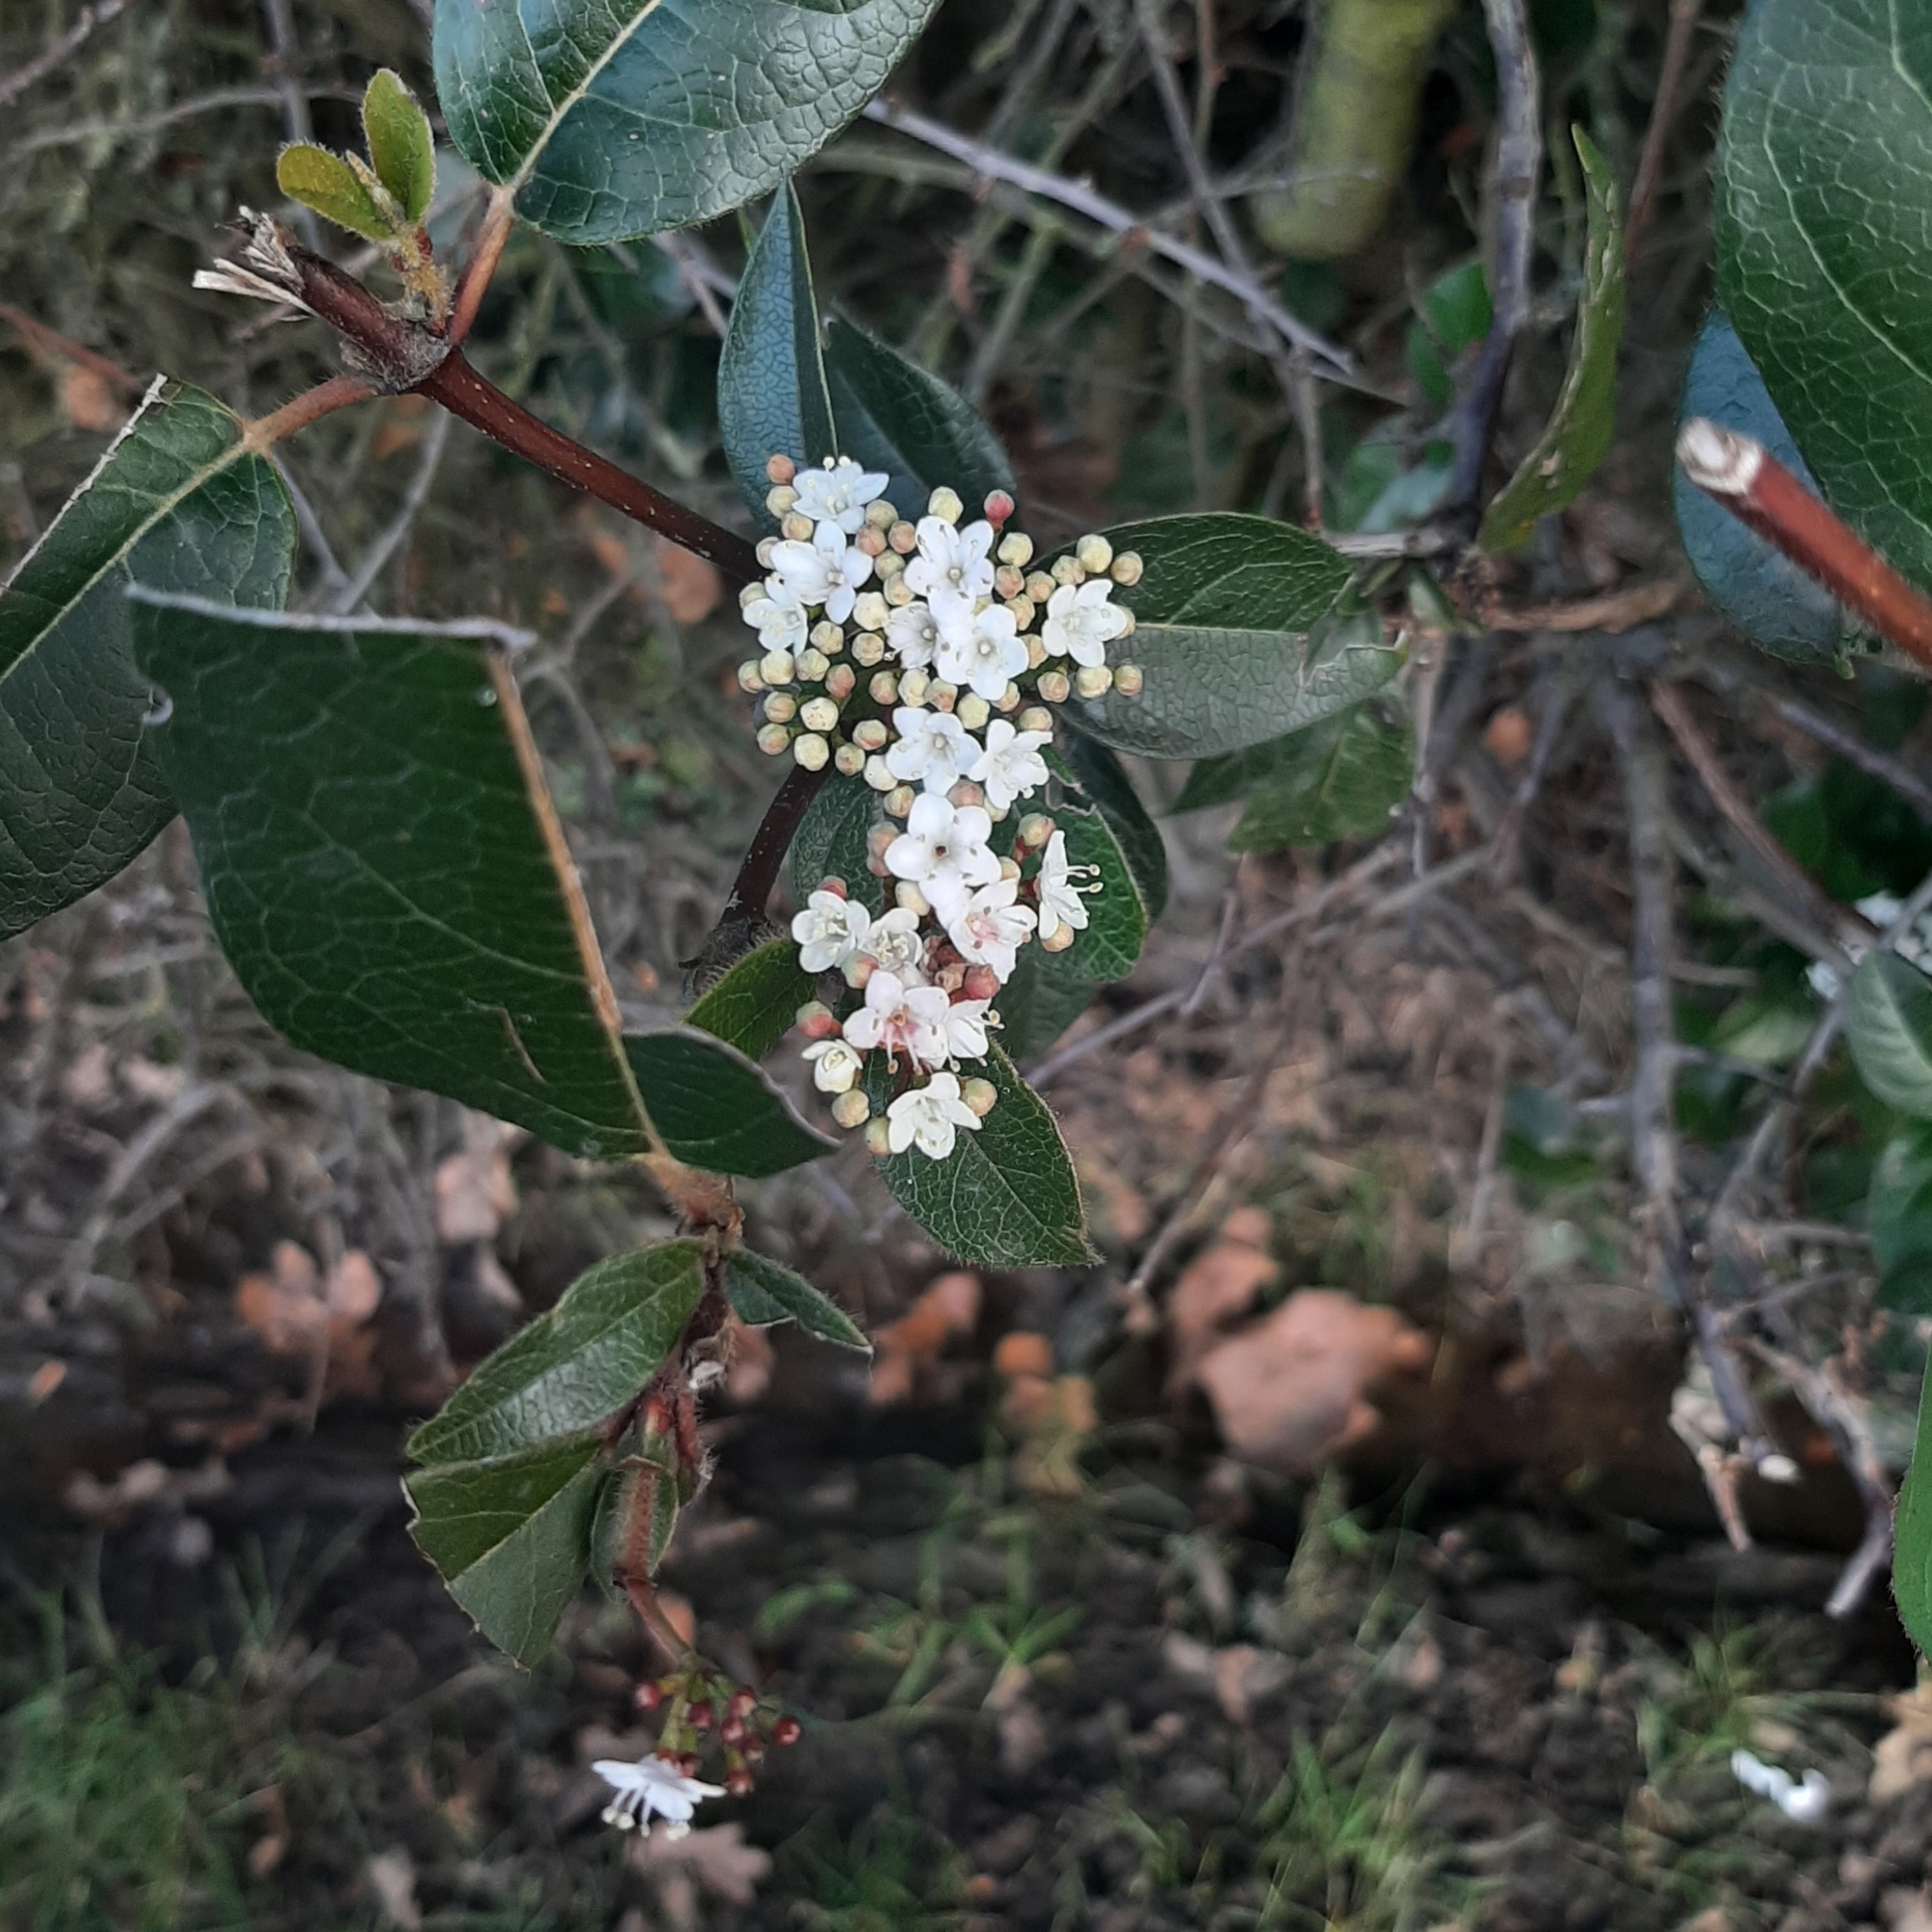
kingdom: Plantae
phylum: Tracheophyta
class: Magnoliopsida
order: Dipsacales
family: Viburnaceae
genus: Viburnum
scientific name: Viburnum tinus
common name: Laurustinus
